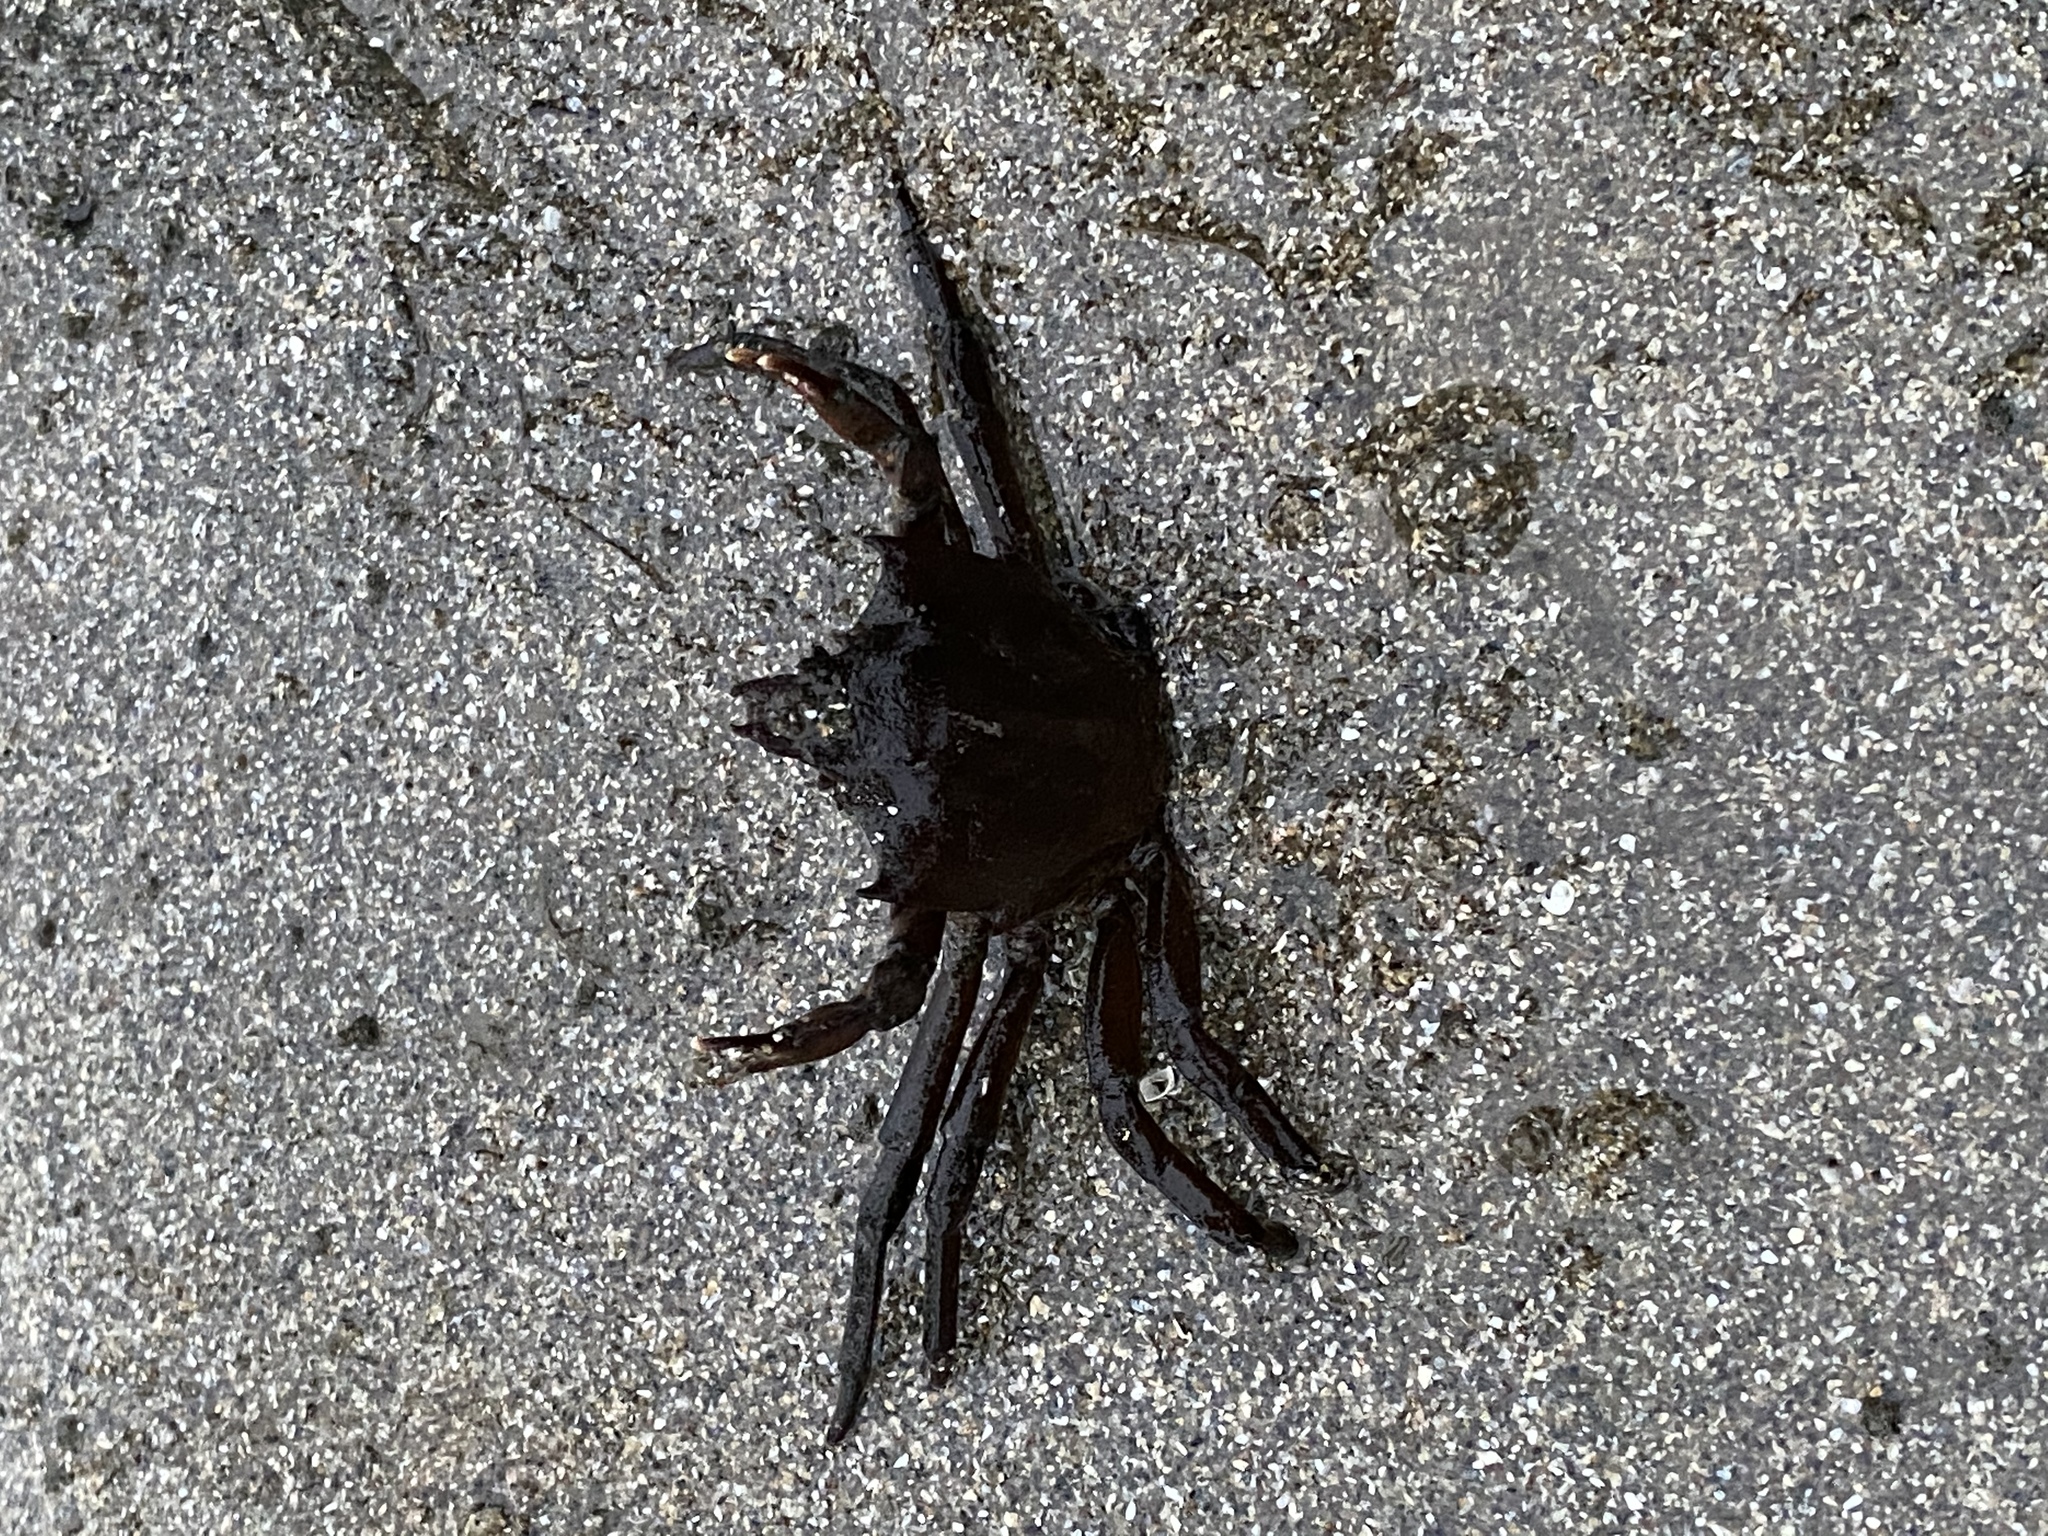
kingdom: Animalia
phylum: Arthropoda
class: Malacostraca
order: Decapoda
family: Epialtidae
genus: Pugettia
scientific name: Pugettia producta
